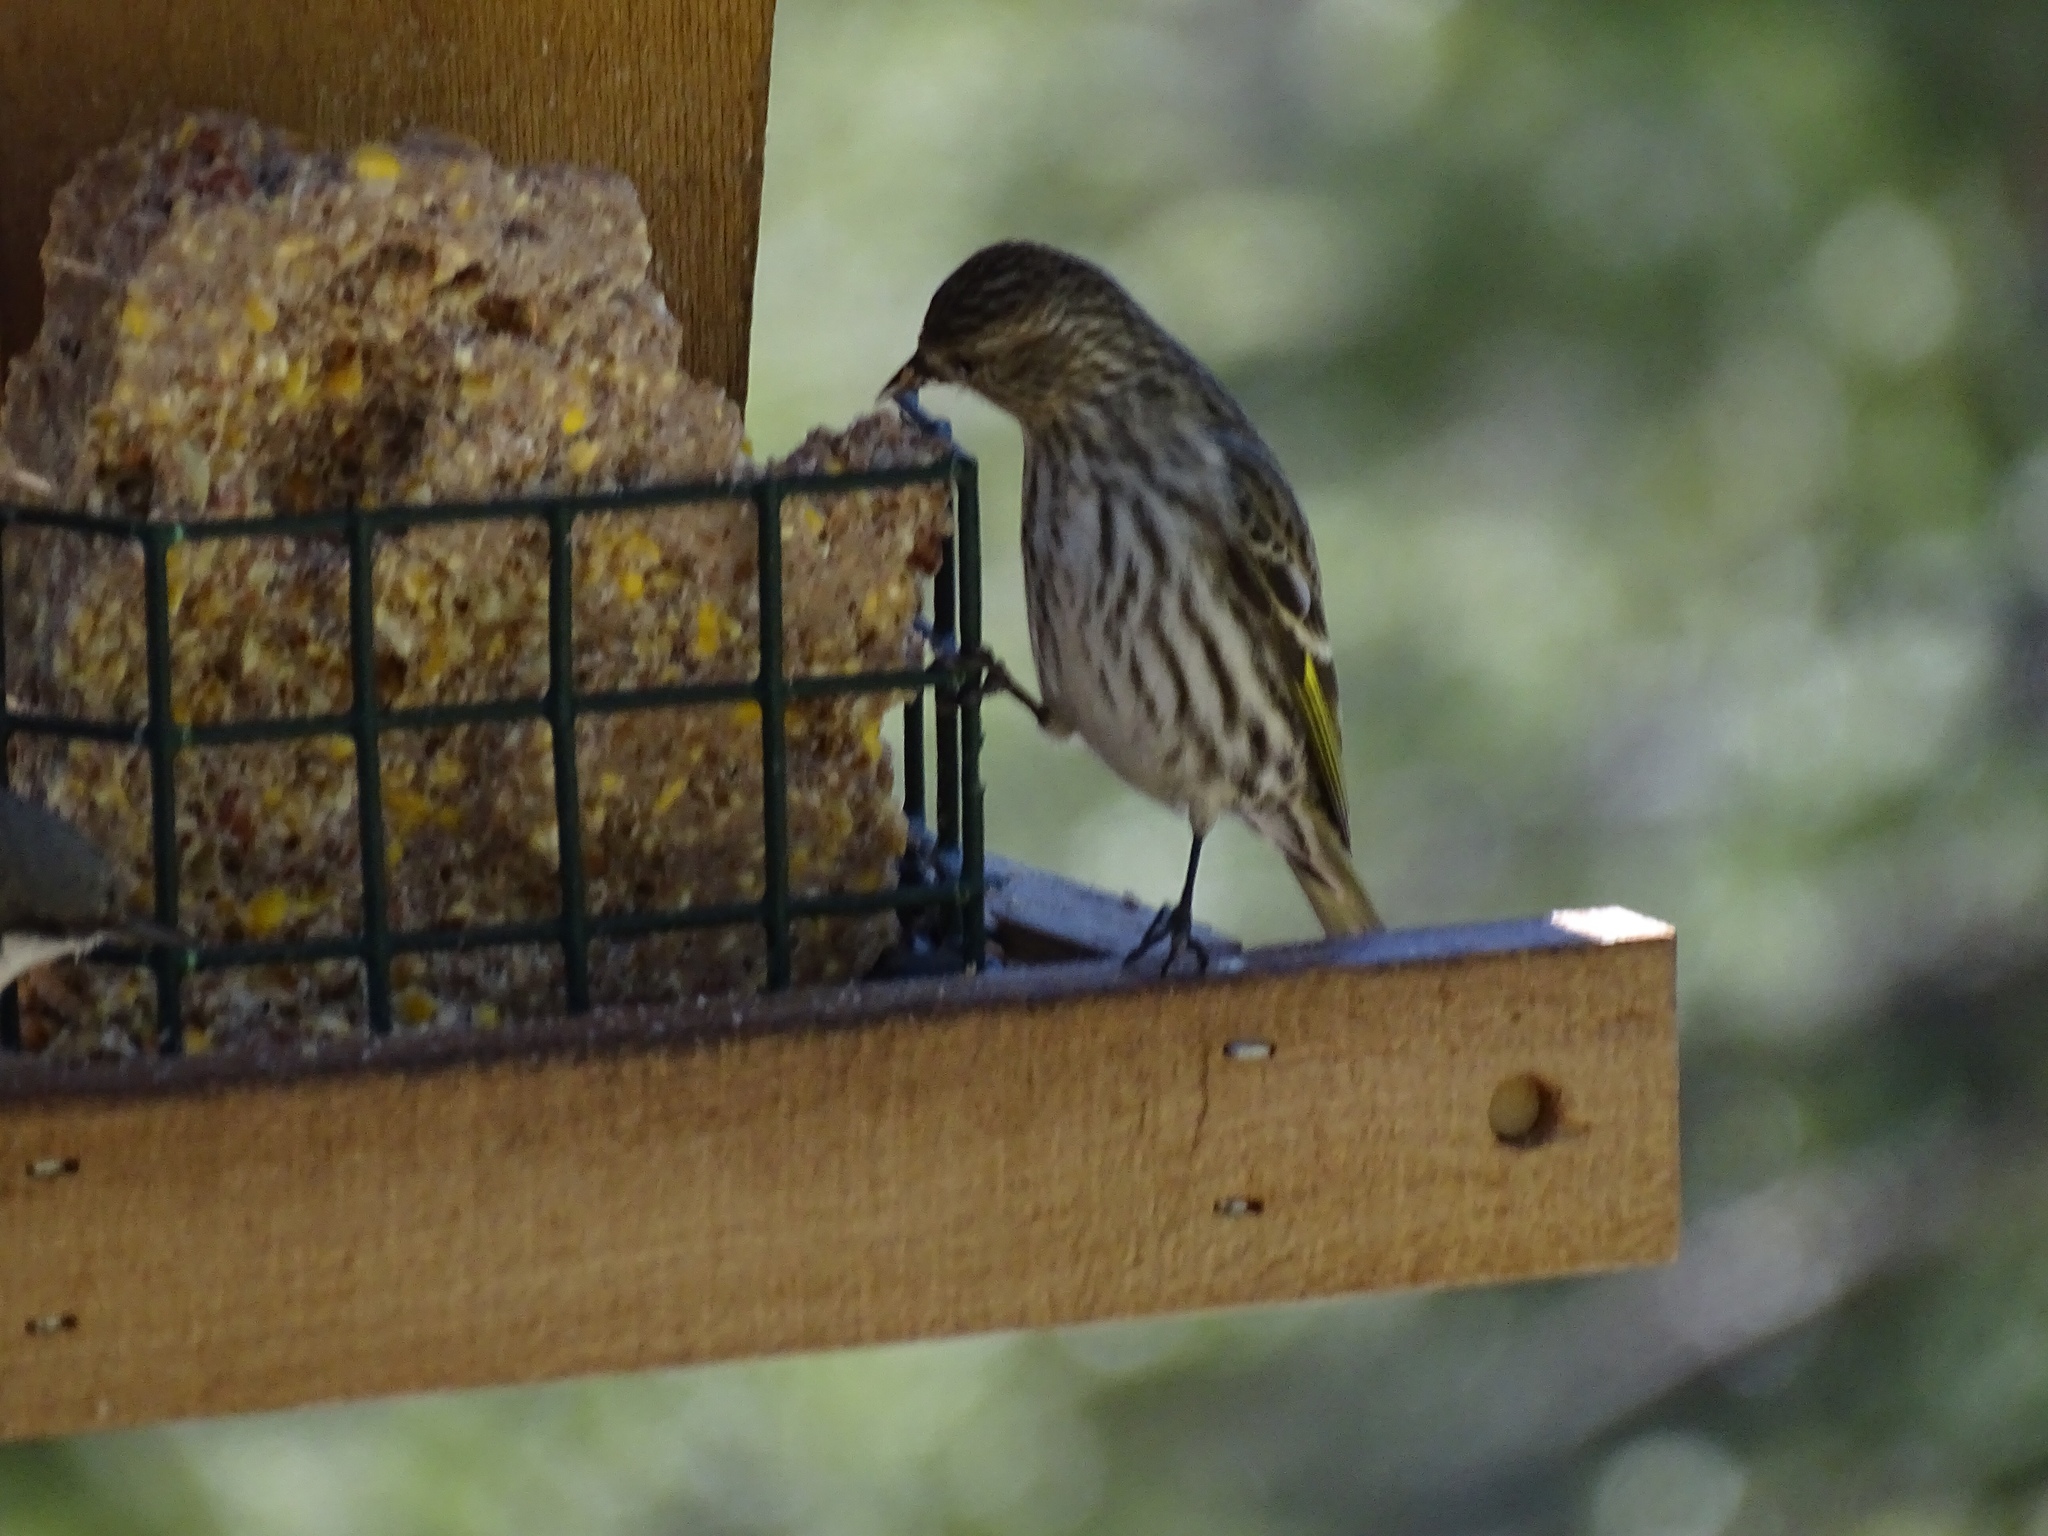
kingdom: Animalia
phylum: Chordata
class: Aves
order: Passeriformes
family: Fringillidae
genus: Spinus
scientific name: Spinus pinus
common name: Pine siskin
